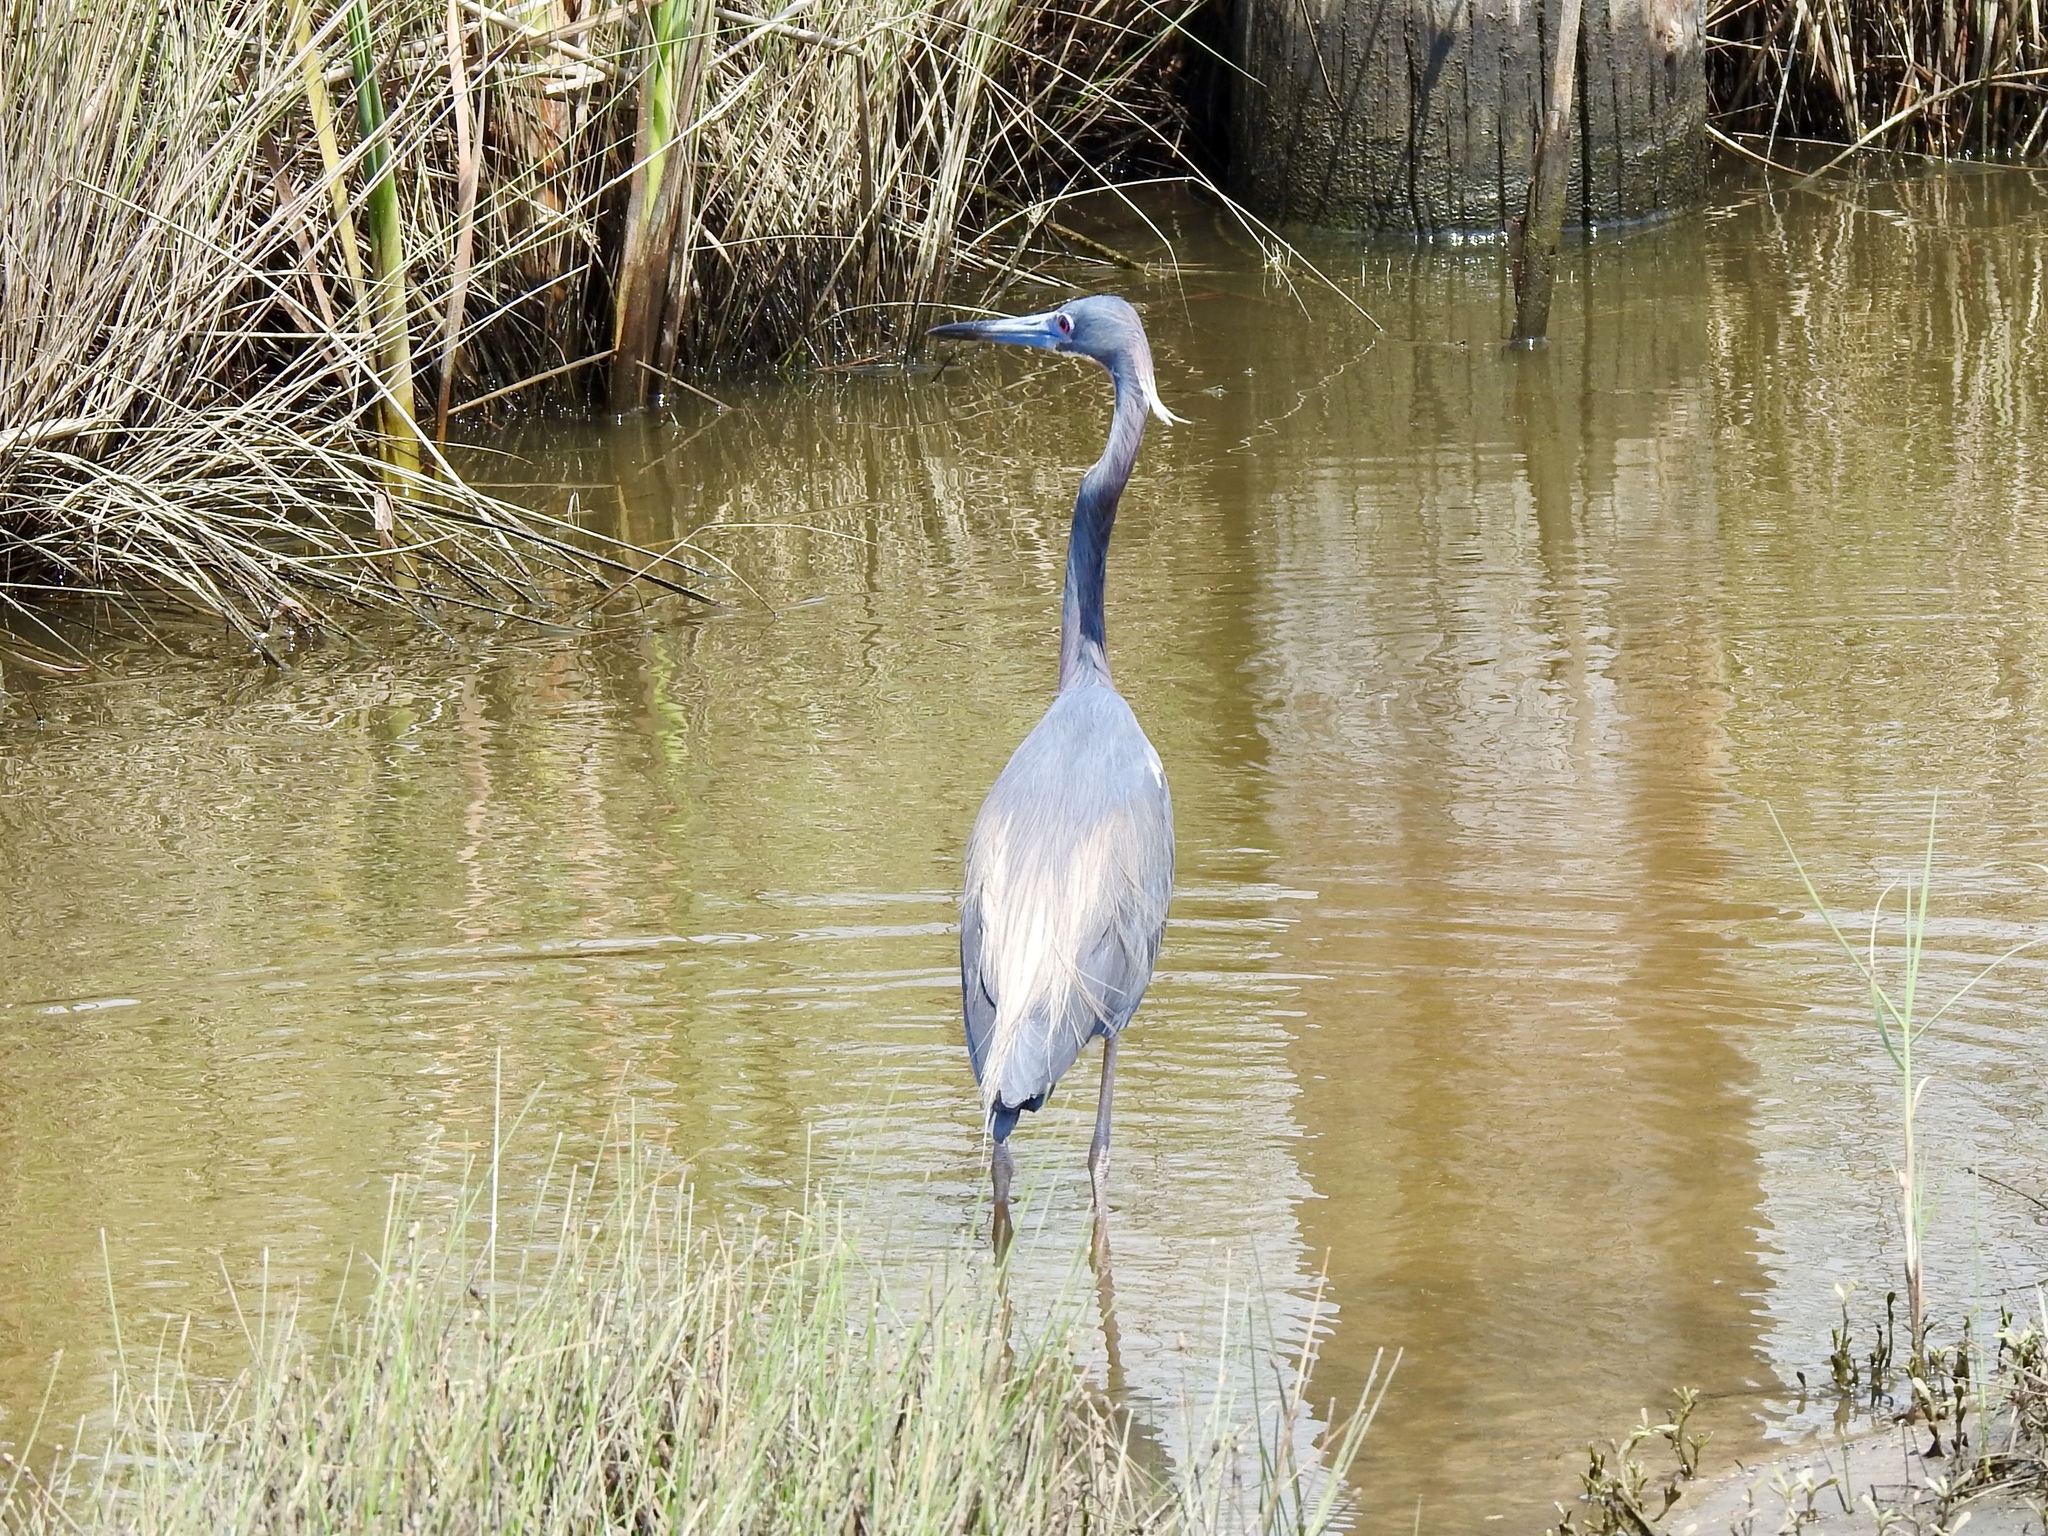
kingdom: Animalia
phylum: Chordata
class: Aves
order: Pelecaniformes
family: Ardeidae
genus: Egretta
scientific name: Egretta tricolor
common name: Tricolored heron
